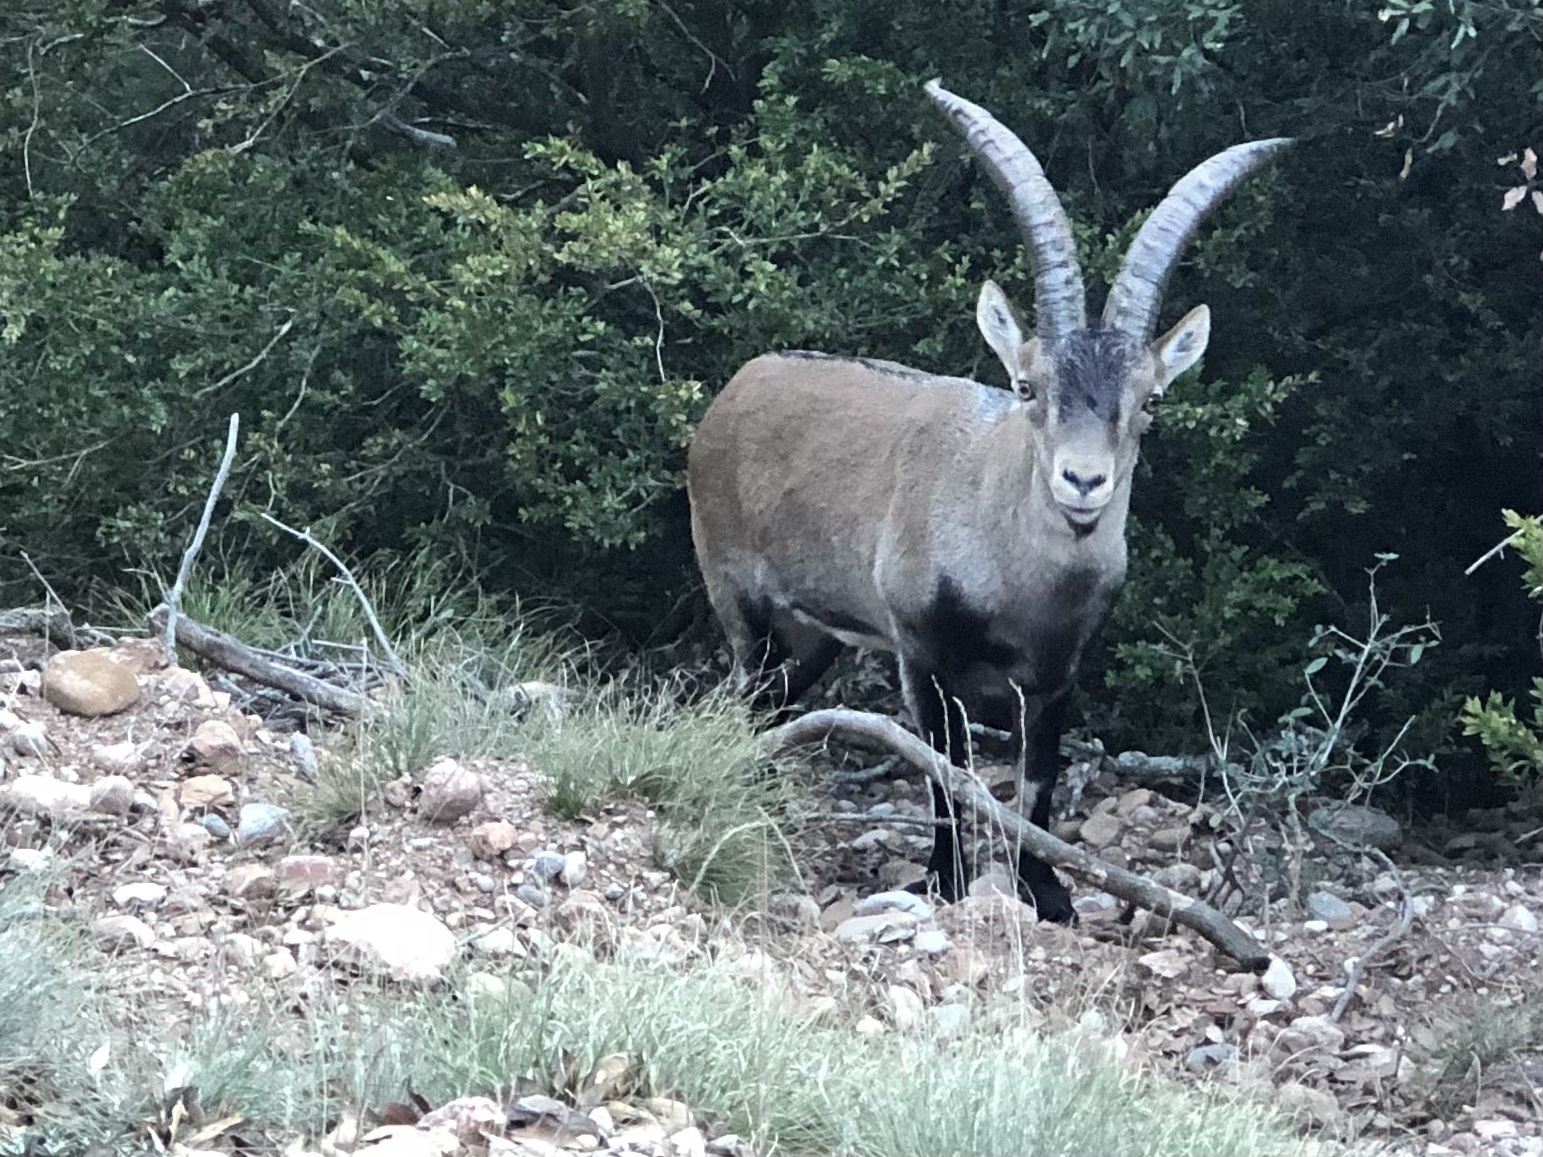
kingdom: Animalia
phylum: Chordata
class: Mammalia
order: Artiodactyla
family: Bovidae
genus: Capra
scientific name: Capra pyrenaica
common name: Spanish ibex
